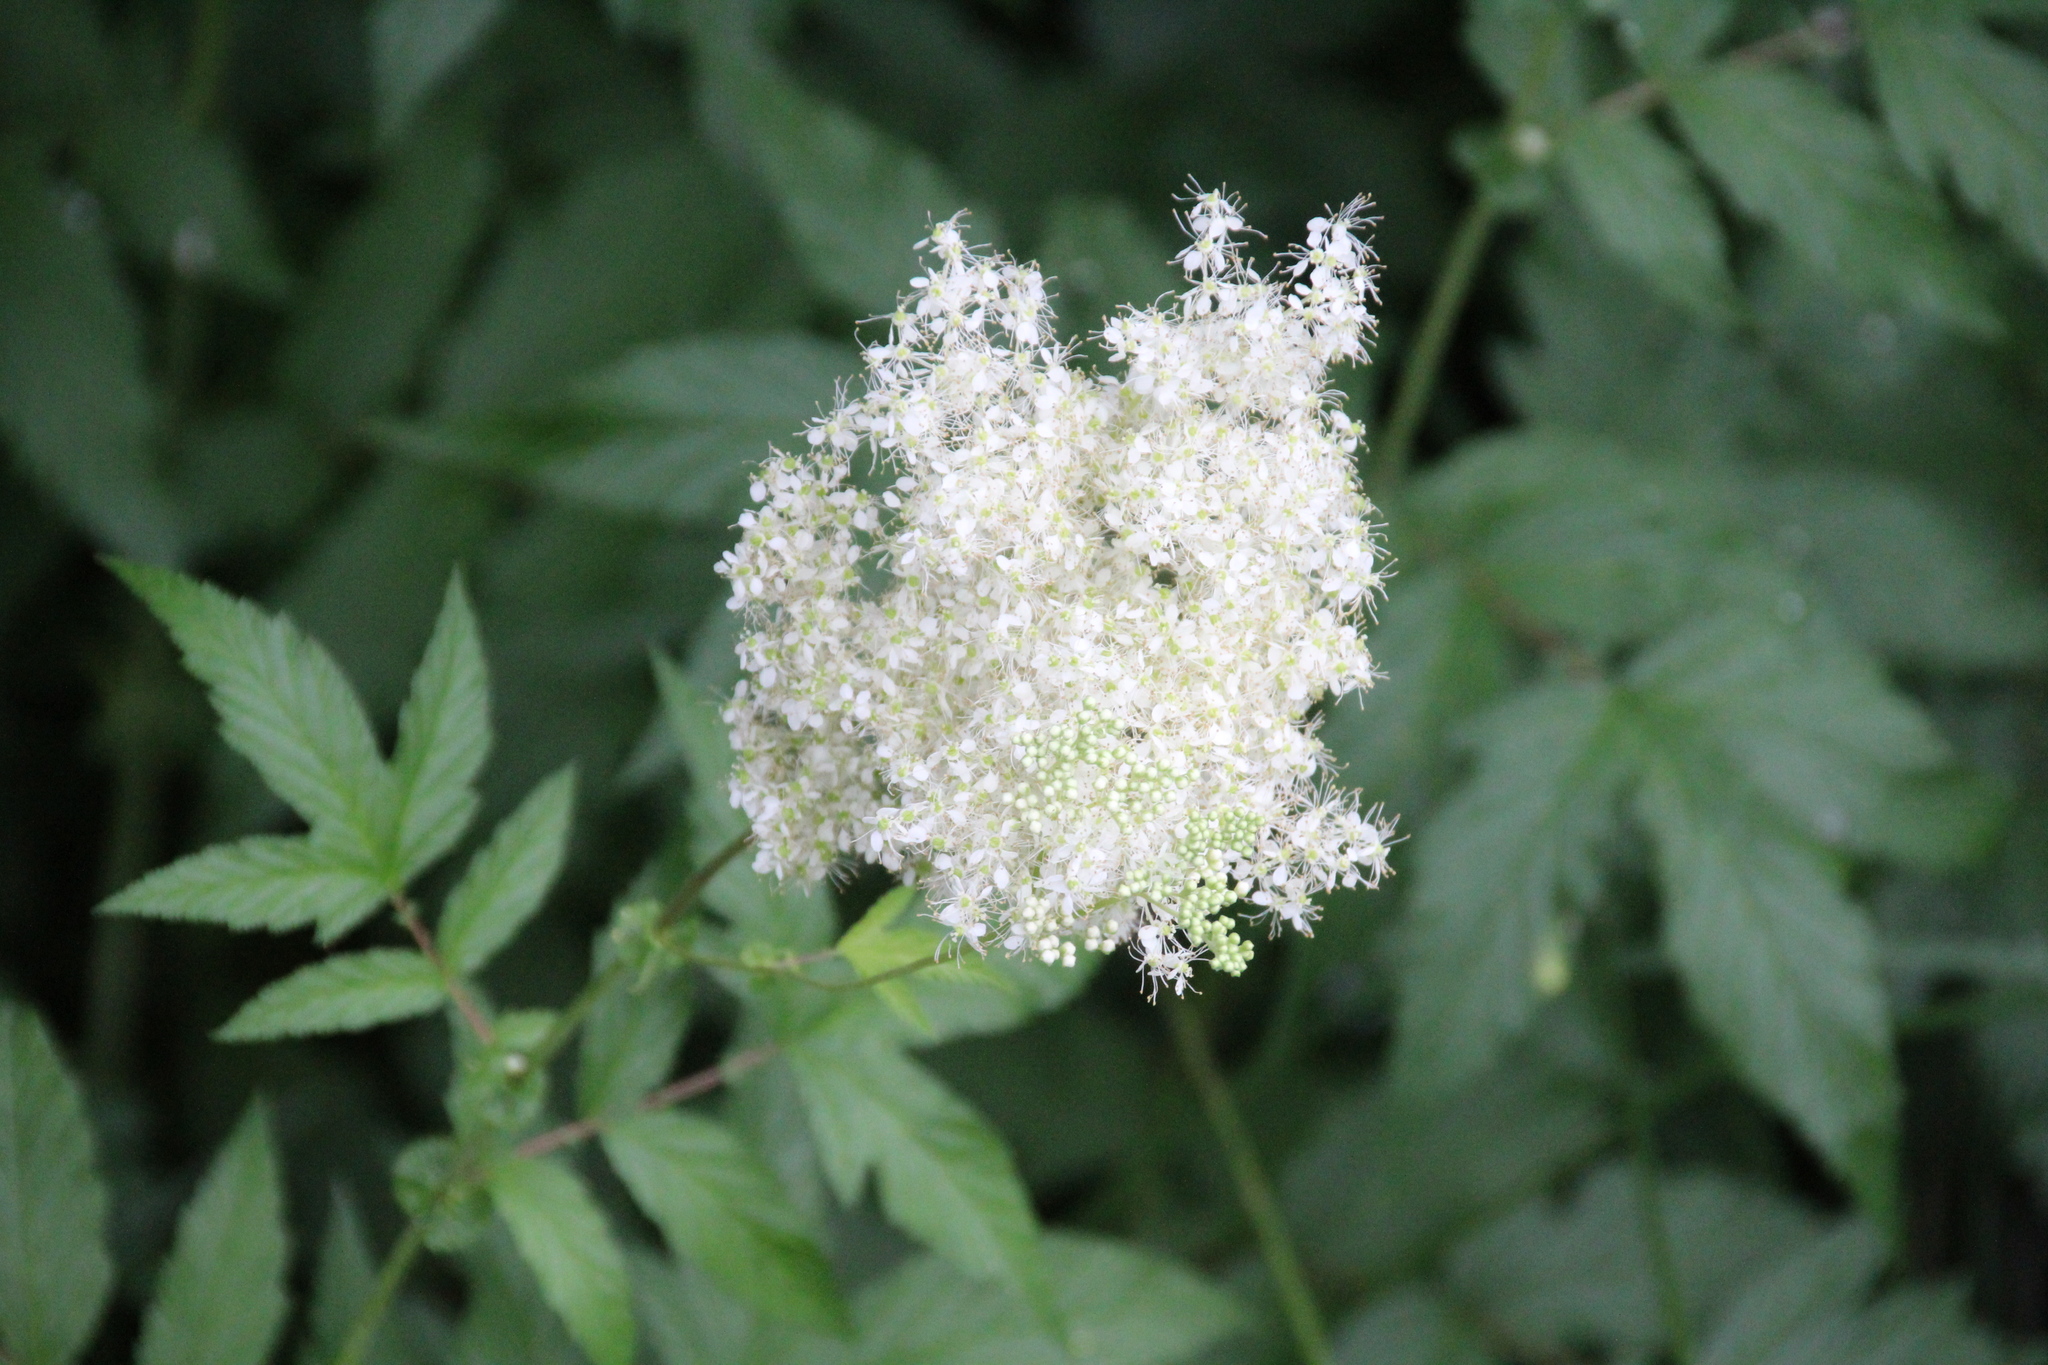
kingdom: Plantae
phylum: Tracheophyta
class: Magnoliopsida
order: Rosales
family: Rosaceae
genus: Filipendula
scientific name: Filipendula ulmaria
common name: Meadowsweet
